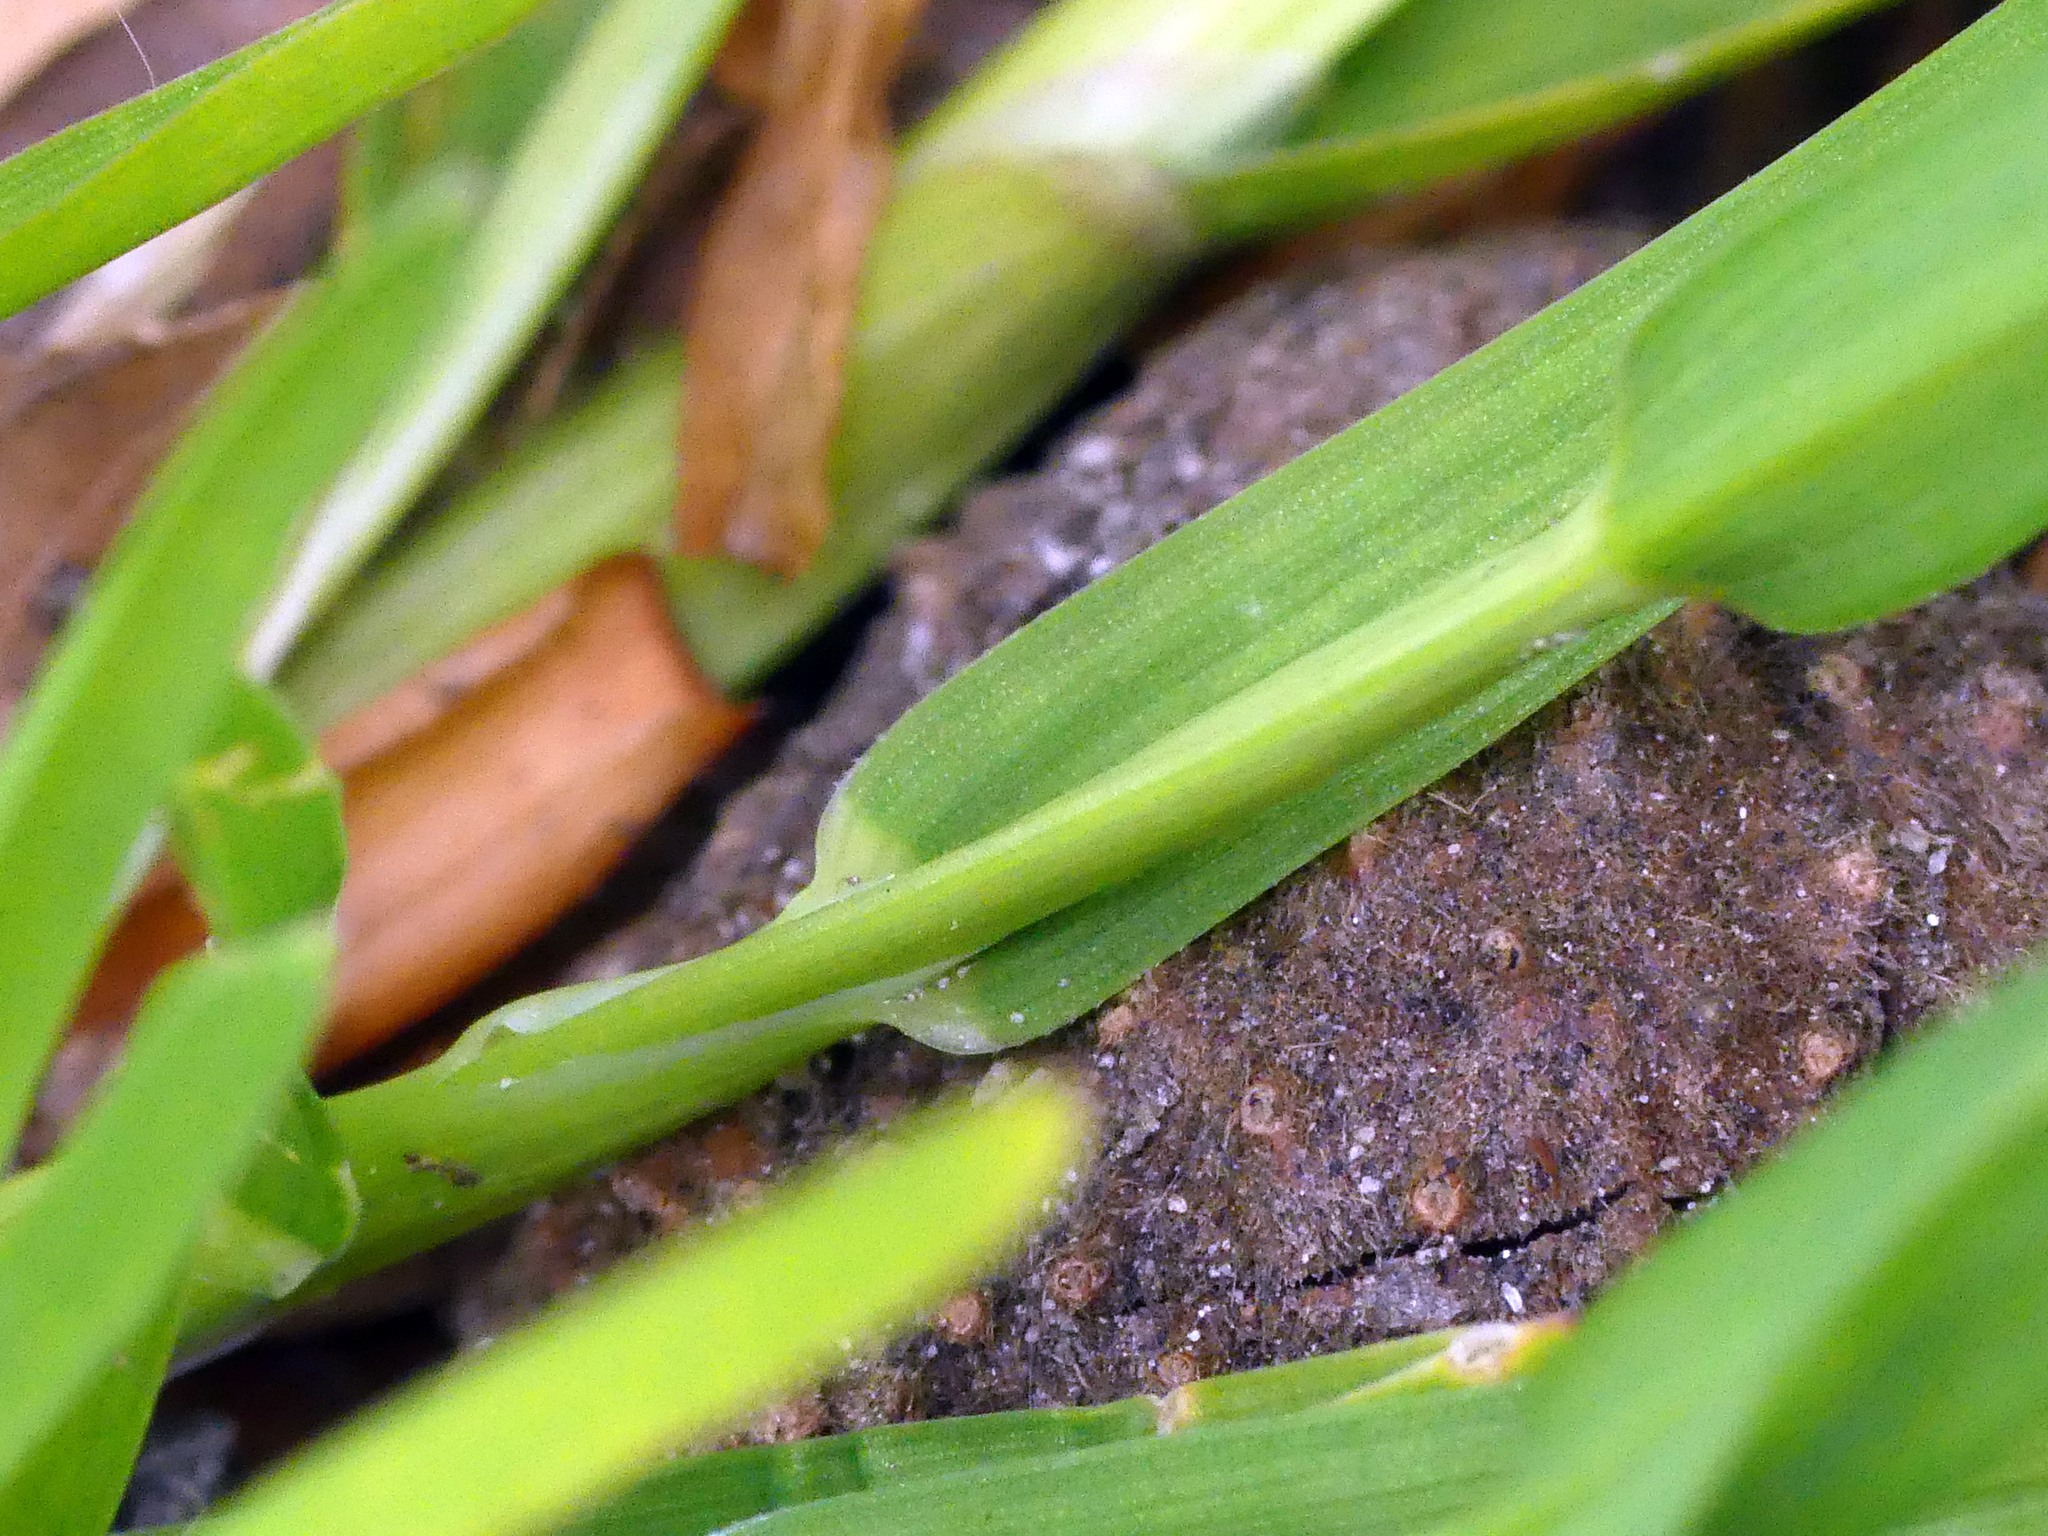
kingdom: Plantae
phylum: Tracheophyta
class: Liliopsida
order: Poales
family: Poaceae
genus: Poa
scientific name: Poa annua
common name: Annual bluegrass
